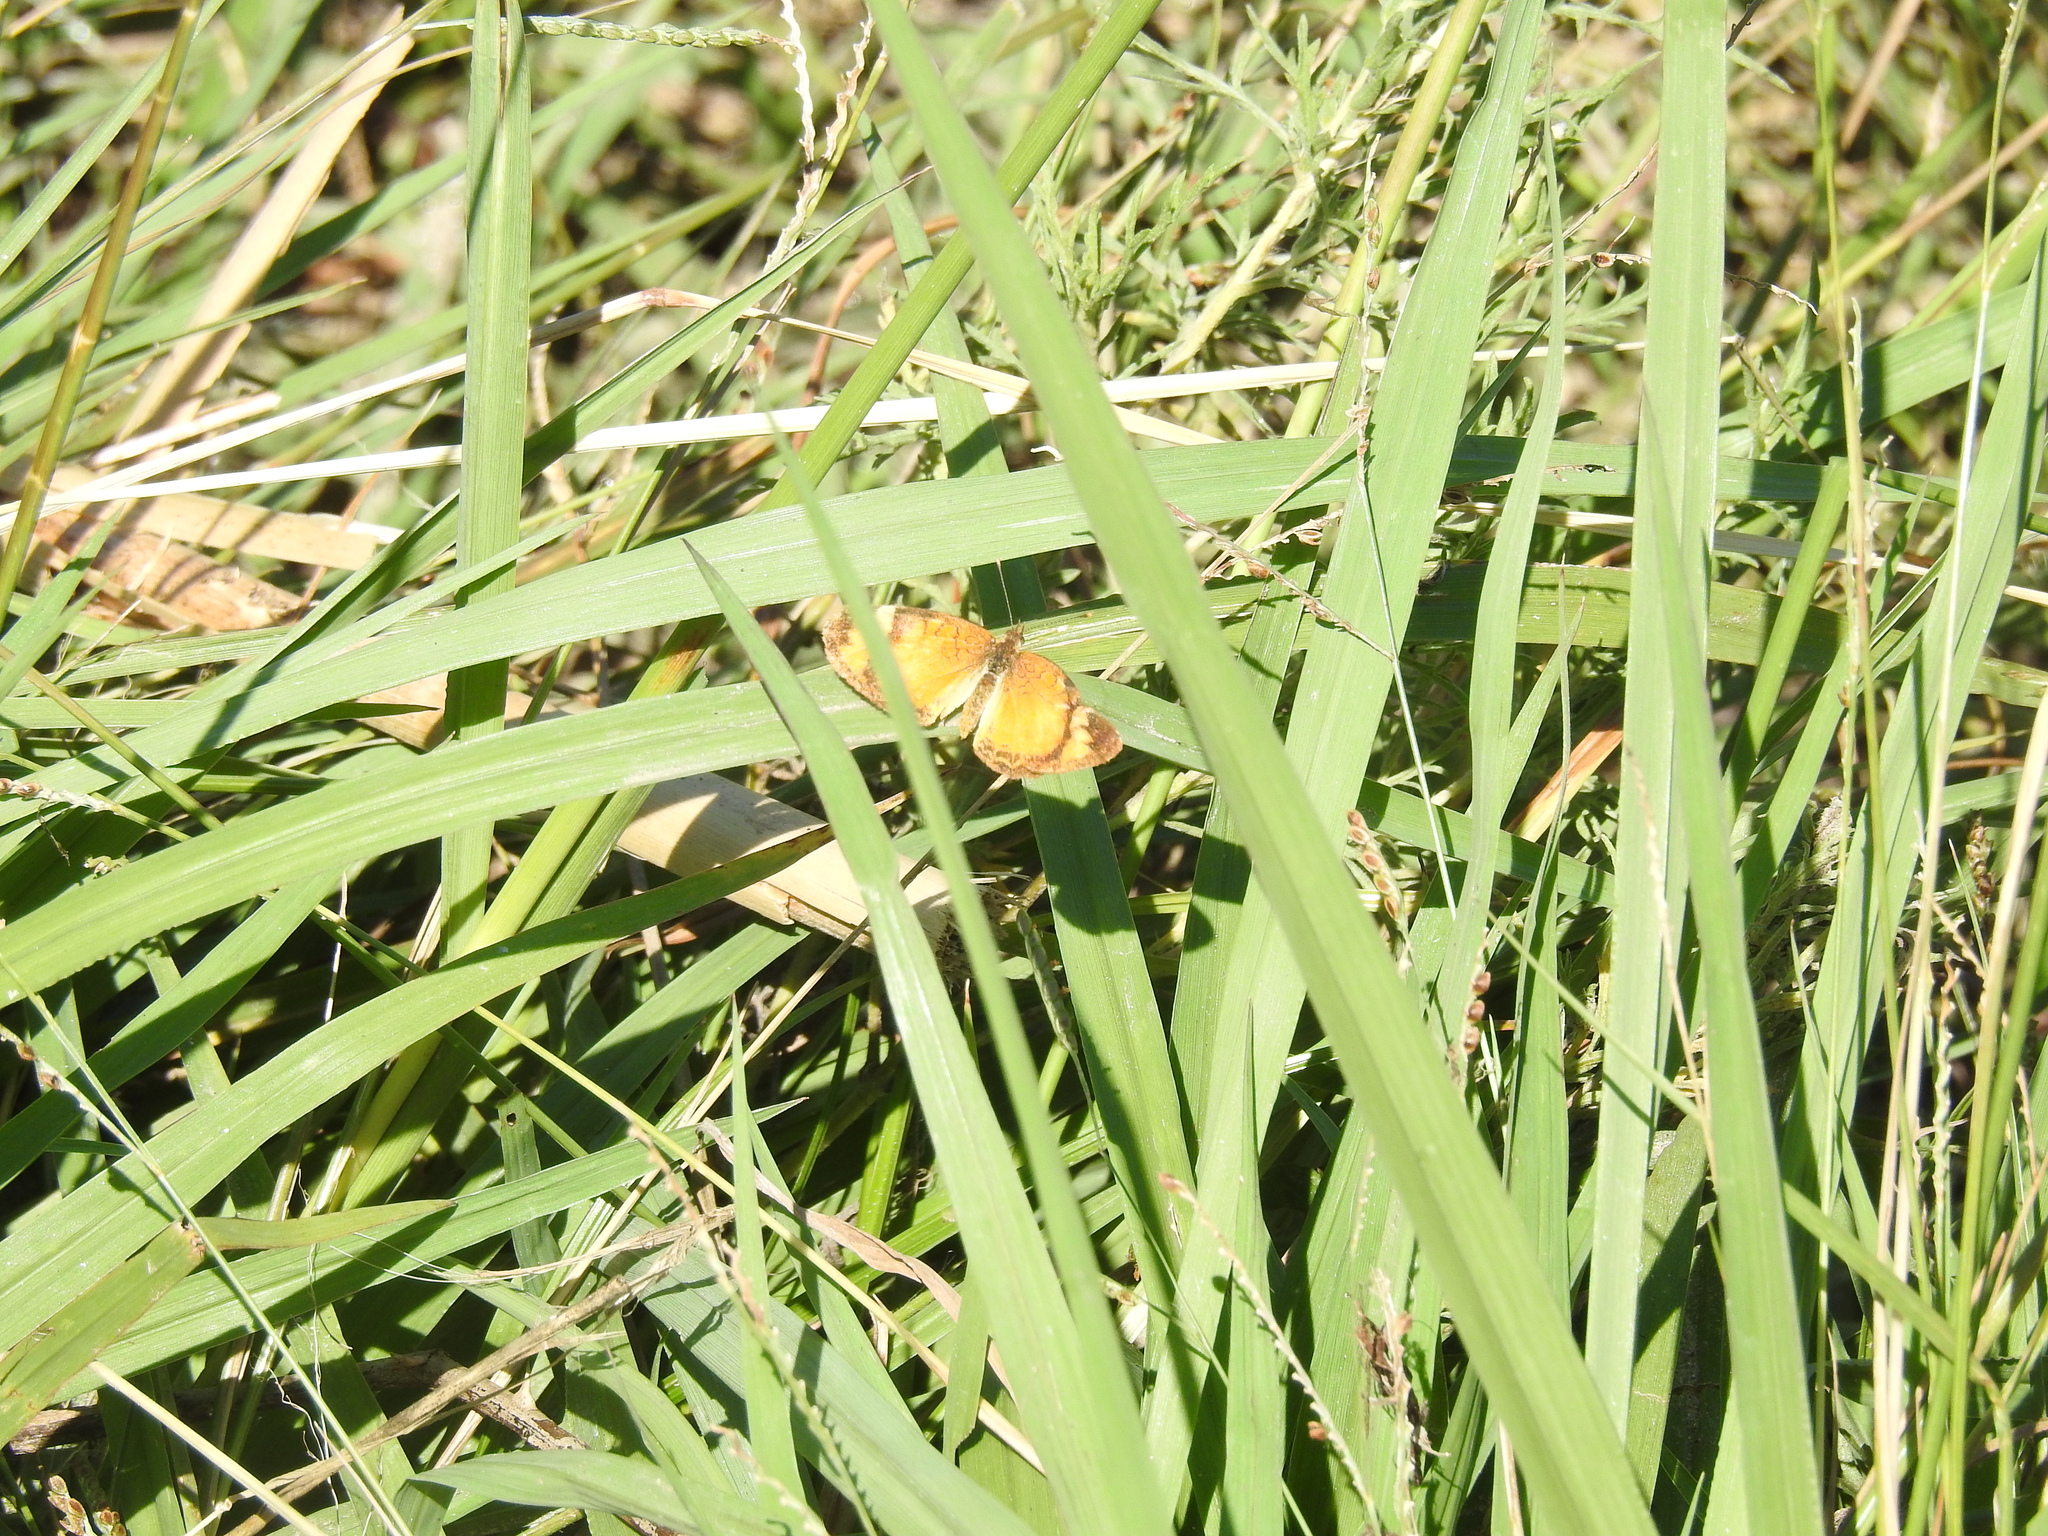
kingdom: Animalia
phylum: Arthropoda
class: Insecta
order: Lepidoptera
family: Nymphalidae
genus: Tegosa
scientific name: Tegosa claudina
